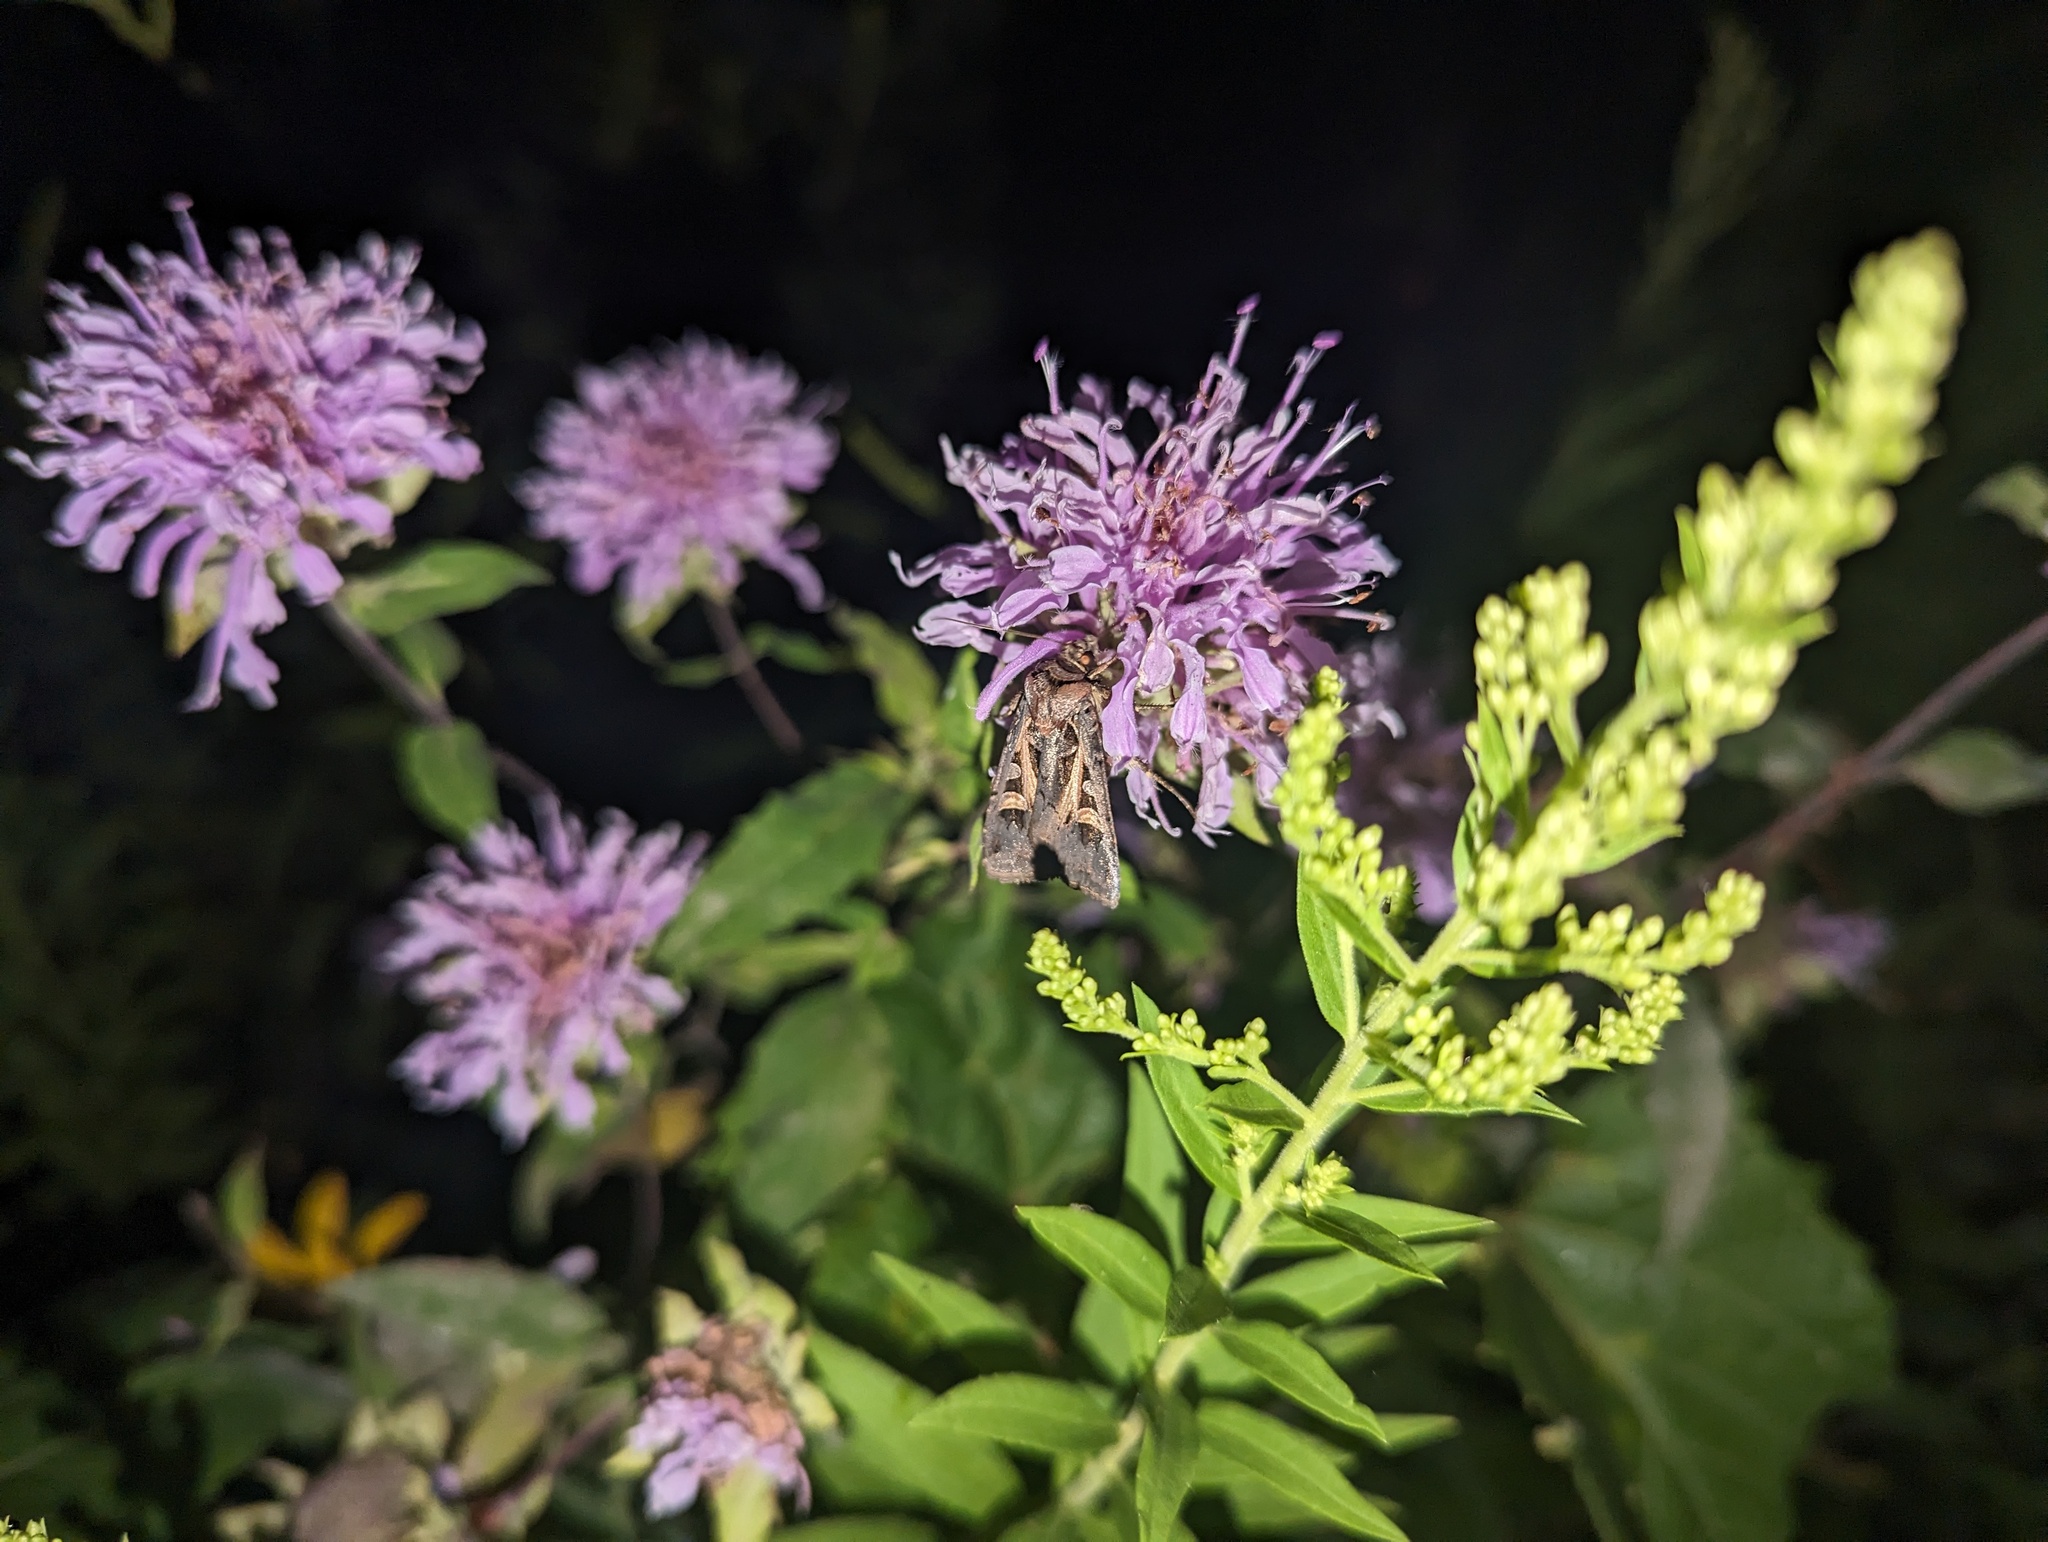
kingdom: Animalia
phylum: Arthropoda
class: Insecta
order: Lepidoptera
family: Noctuidae
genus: Feltia
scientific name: Feltia herilis
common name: Master's dart
